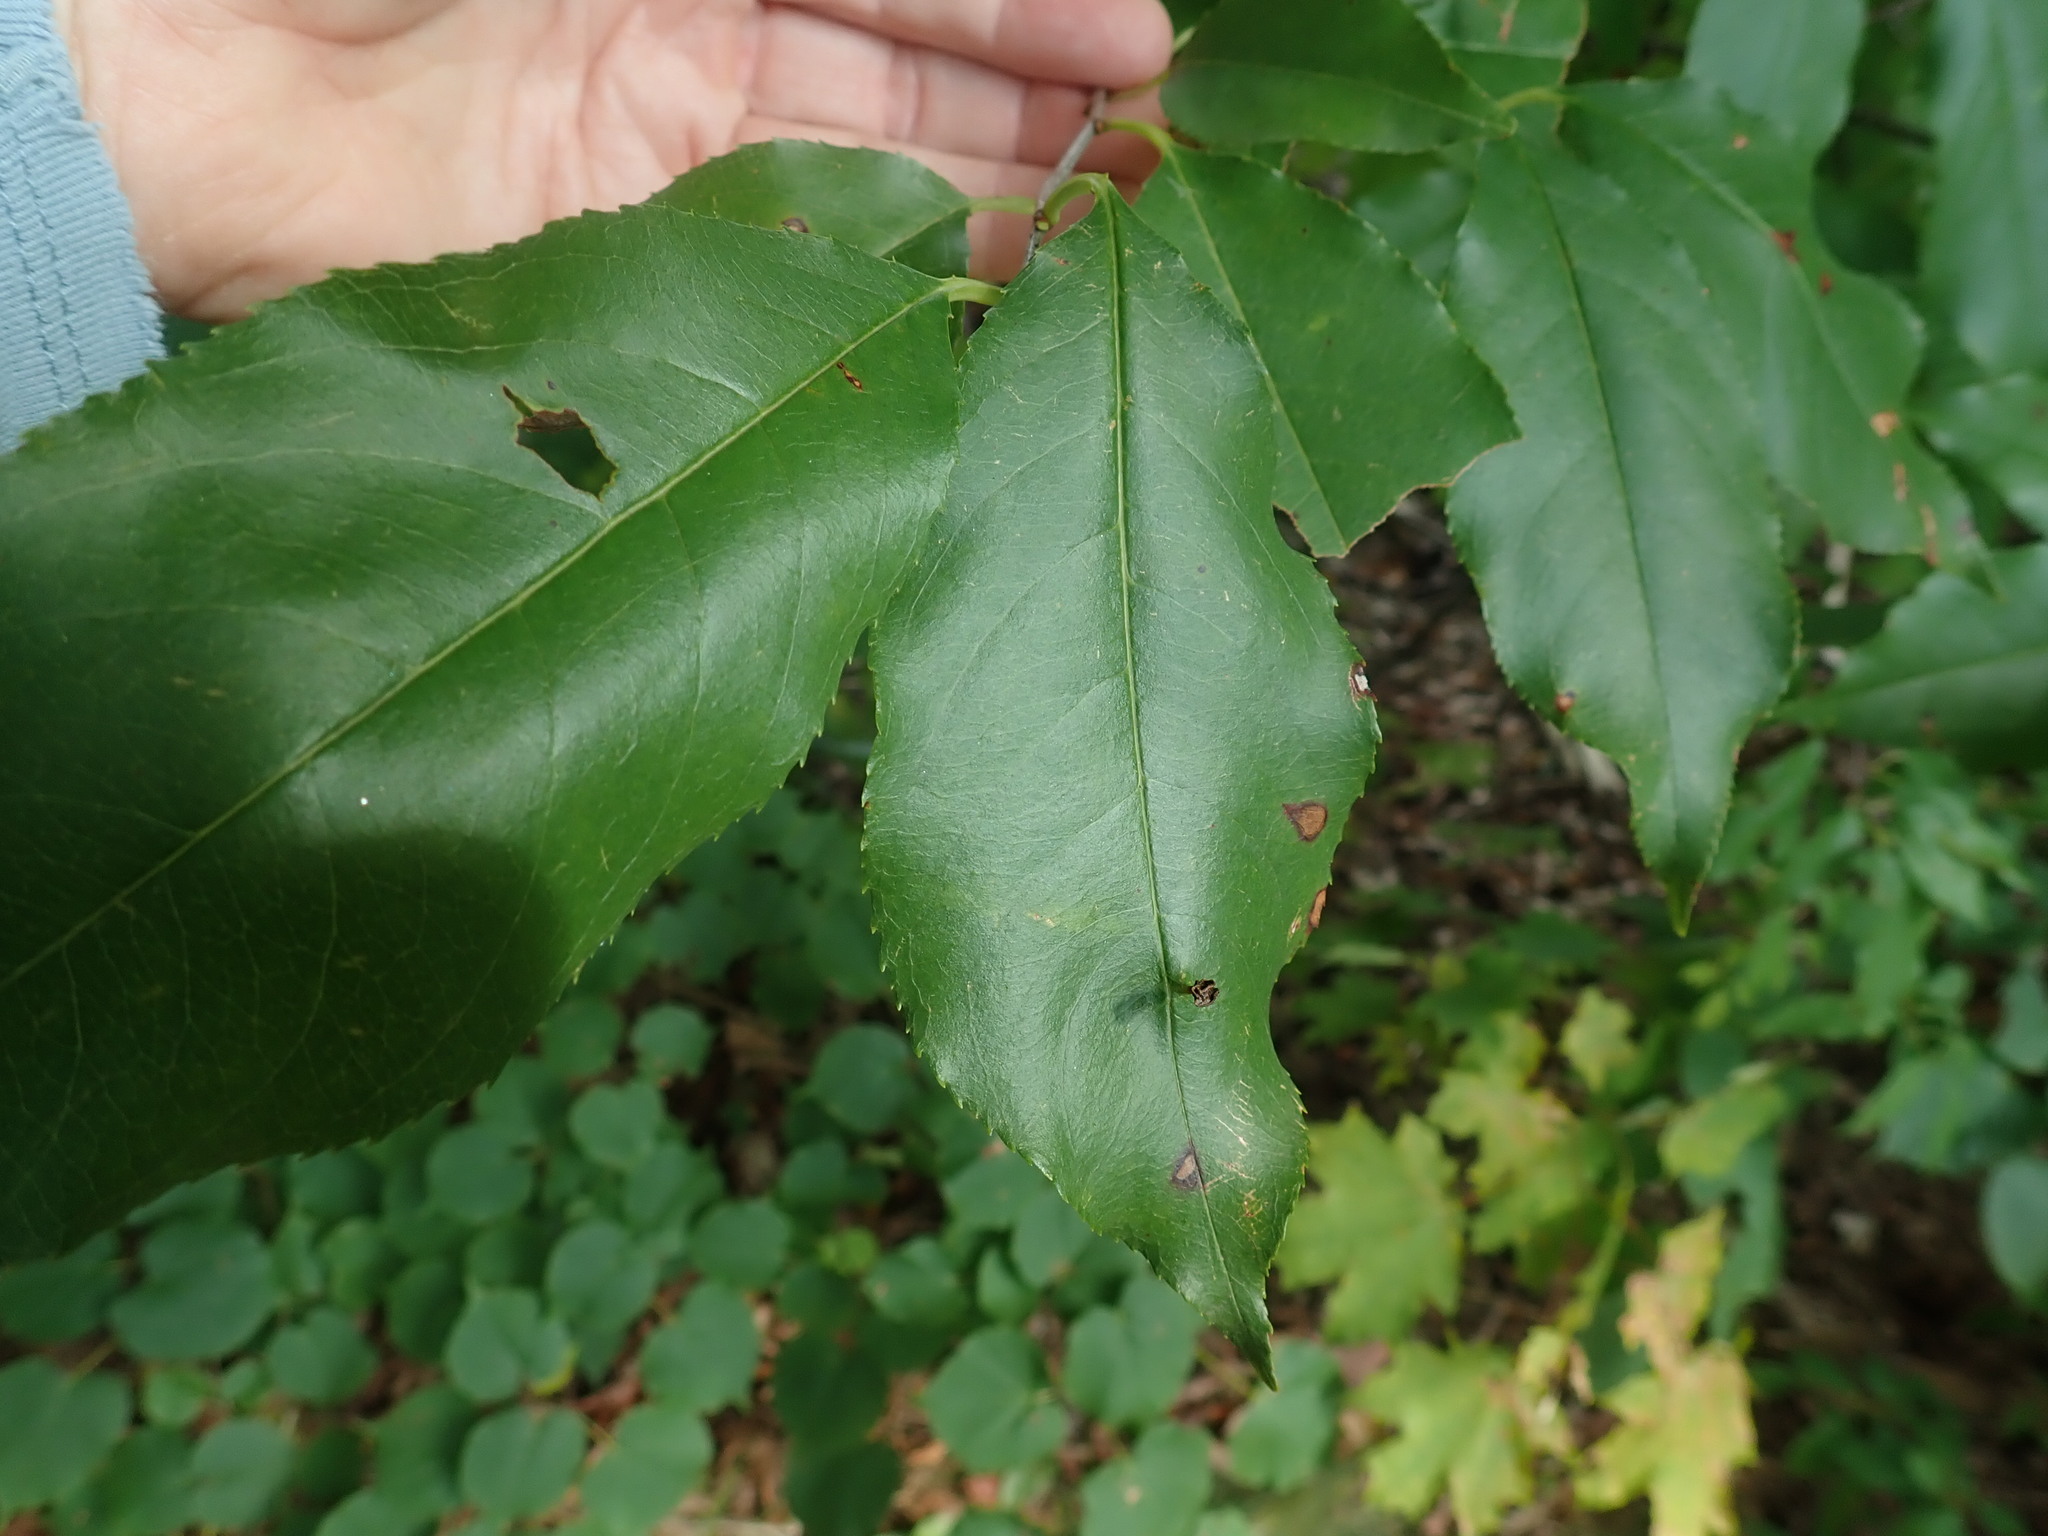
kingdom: Animalia
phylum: Arthropoda
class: Arachnida
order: Trombidiformes
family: Eriophyidae
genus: Eriophyes
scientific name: Eriophyes
